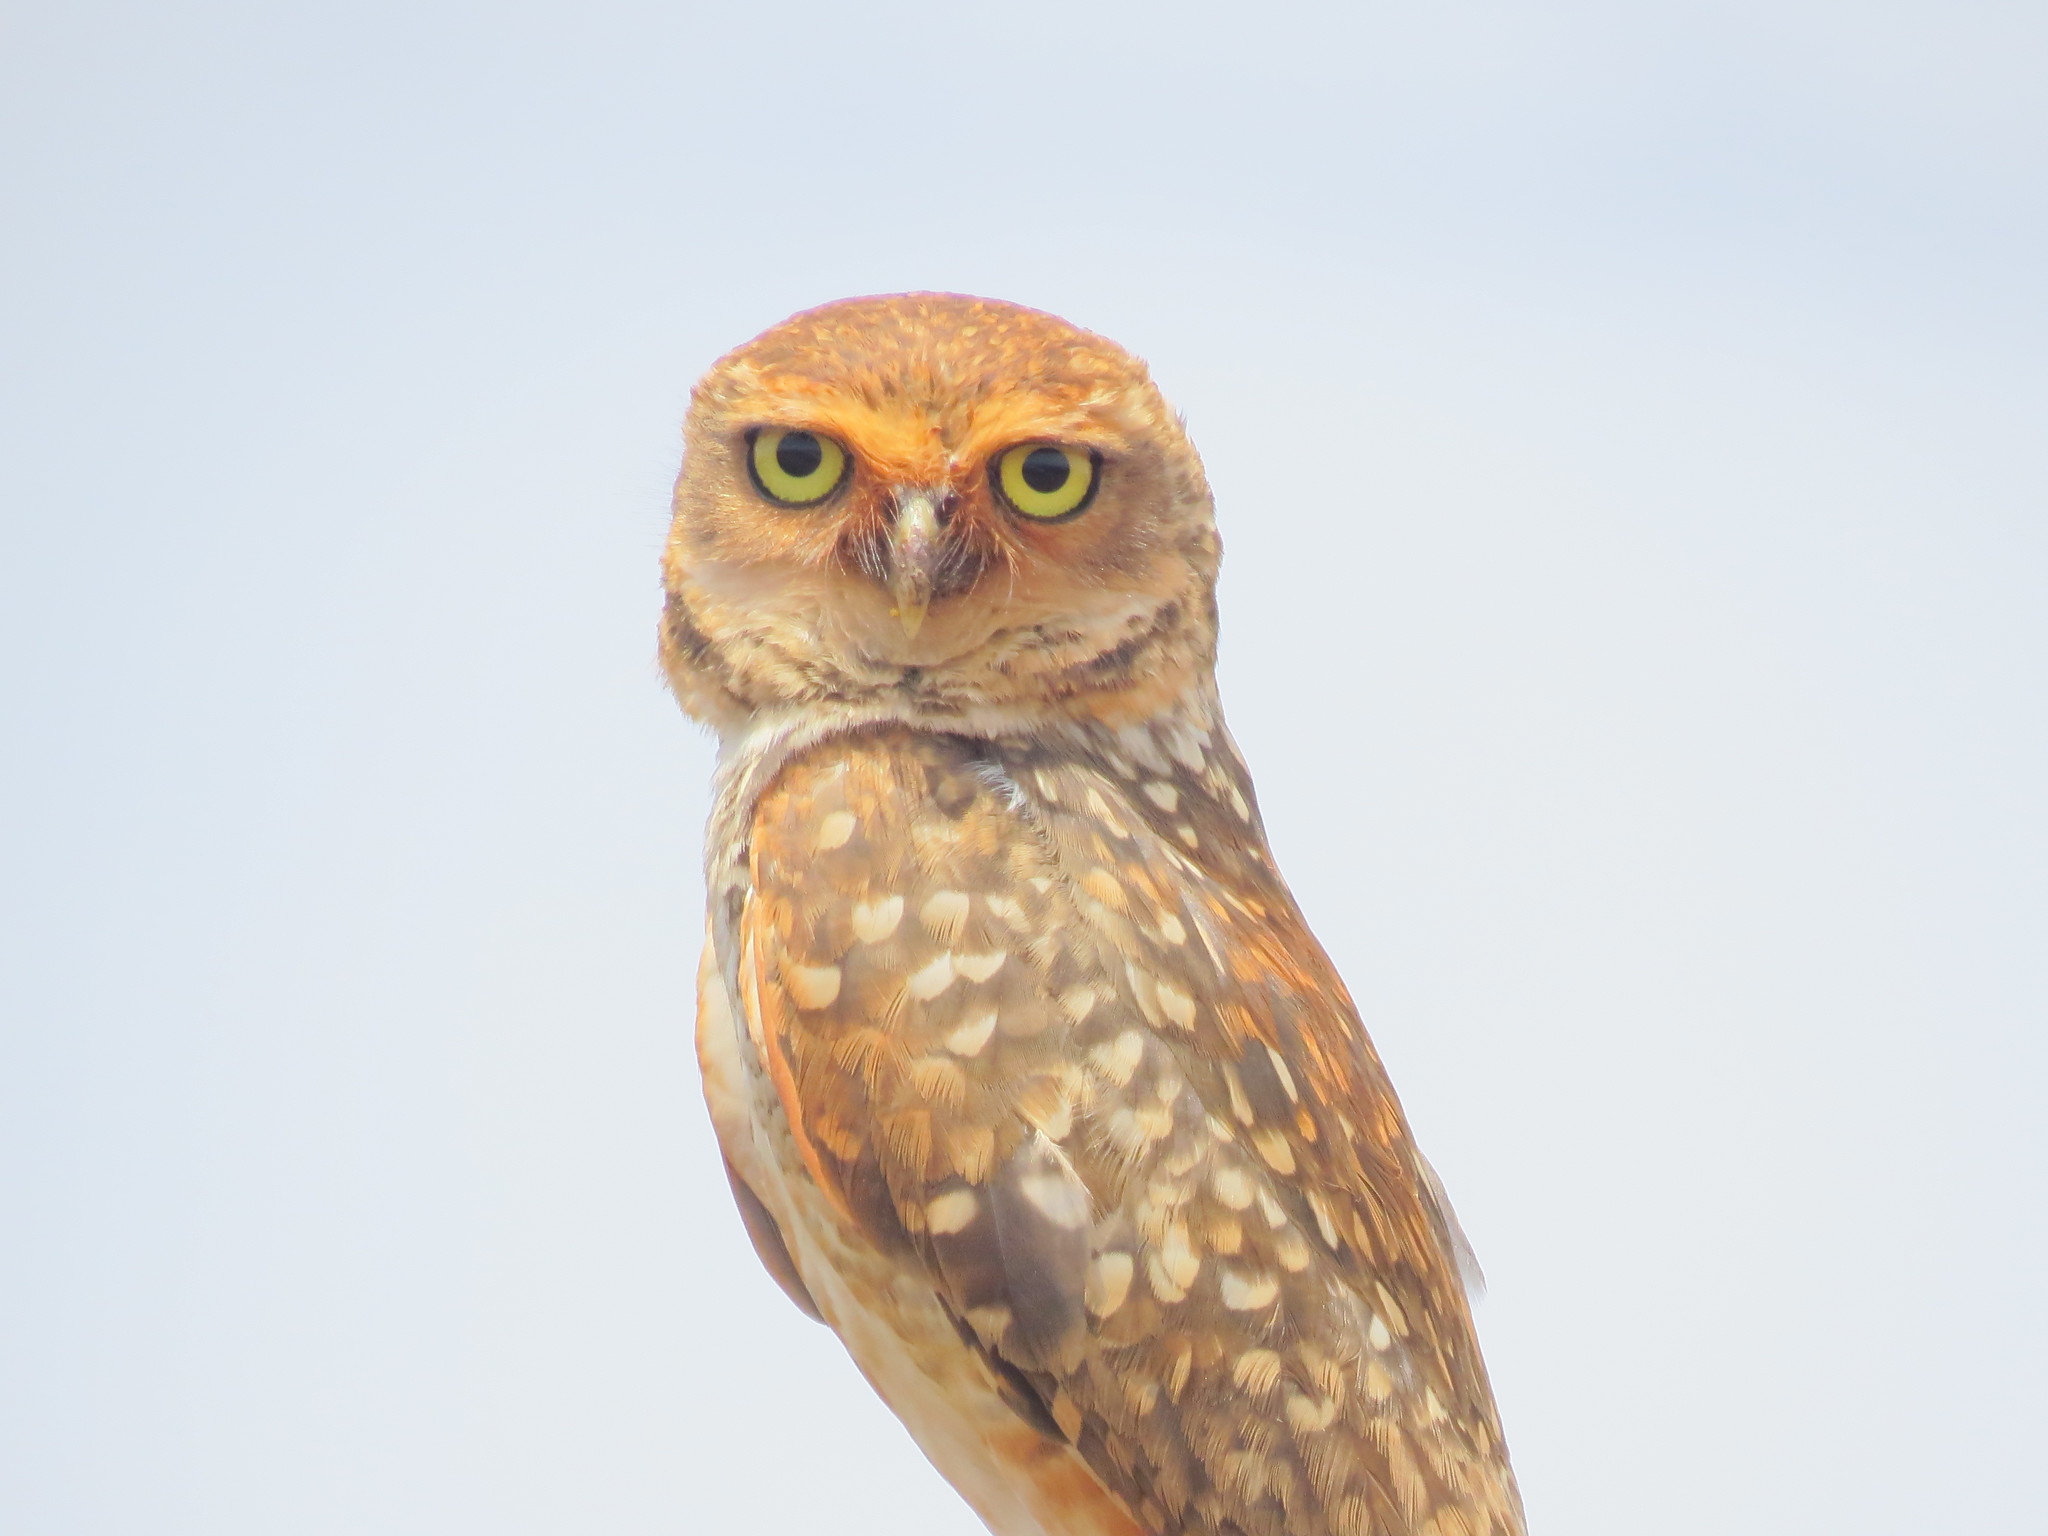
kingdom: Animalia
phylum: Chordata
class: Aves
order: Strigiformes
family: Strigidae
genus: Athene
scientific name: Athene cunicularia
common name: Burrowing owl
